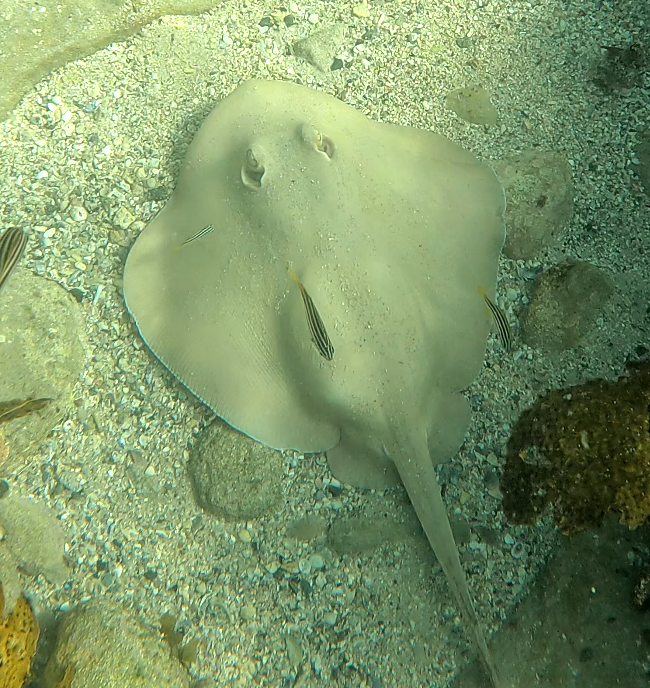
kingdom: Animalia
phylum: Chordata
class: Elasmobranchii
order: Myliobatiformes
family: Urolophidae
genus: Trygonoptera
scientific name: Trygonoptera testacea
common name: Common stingaree
